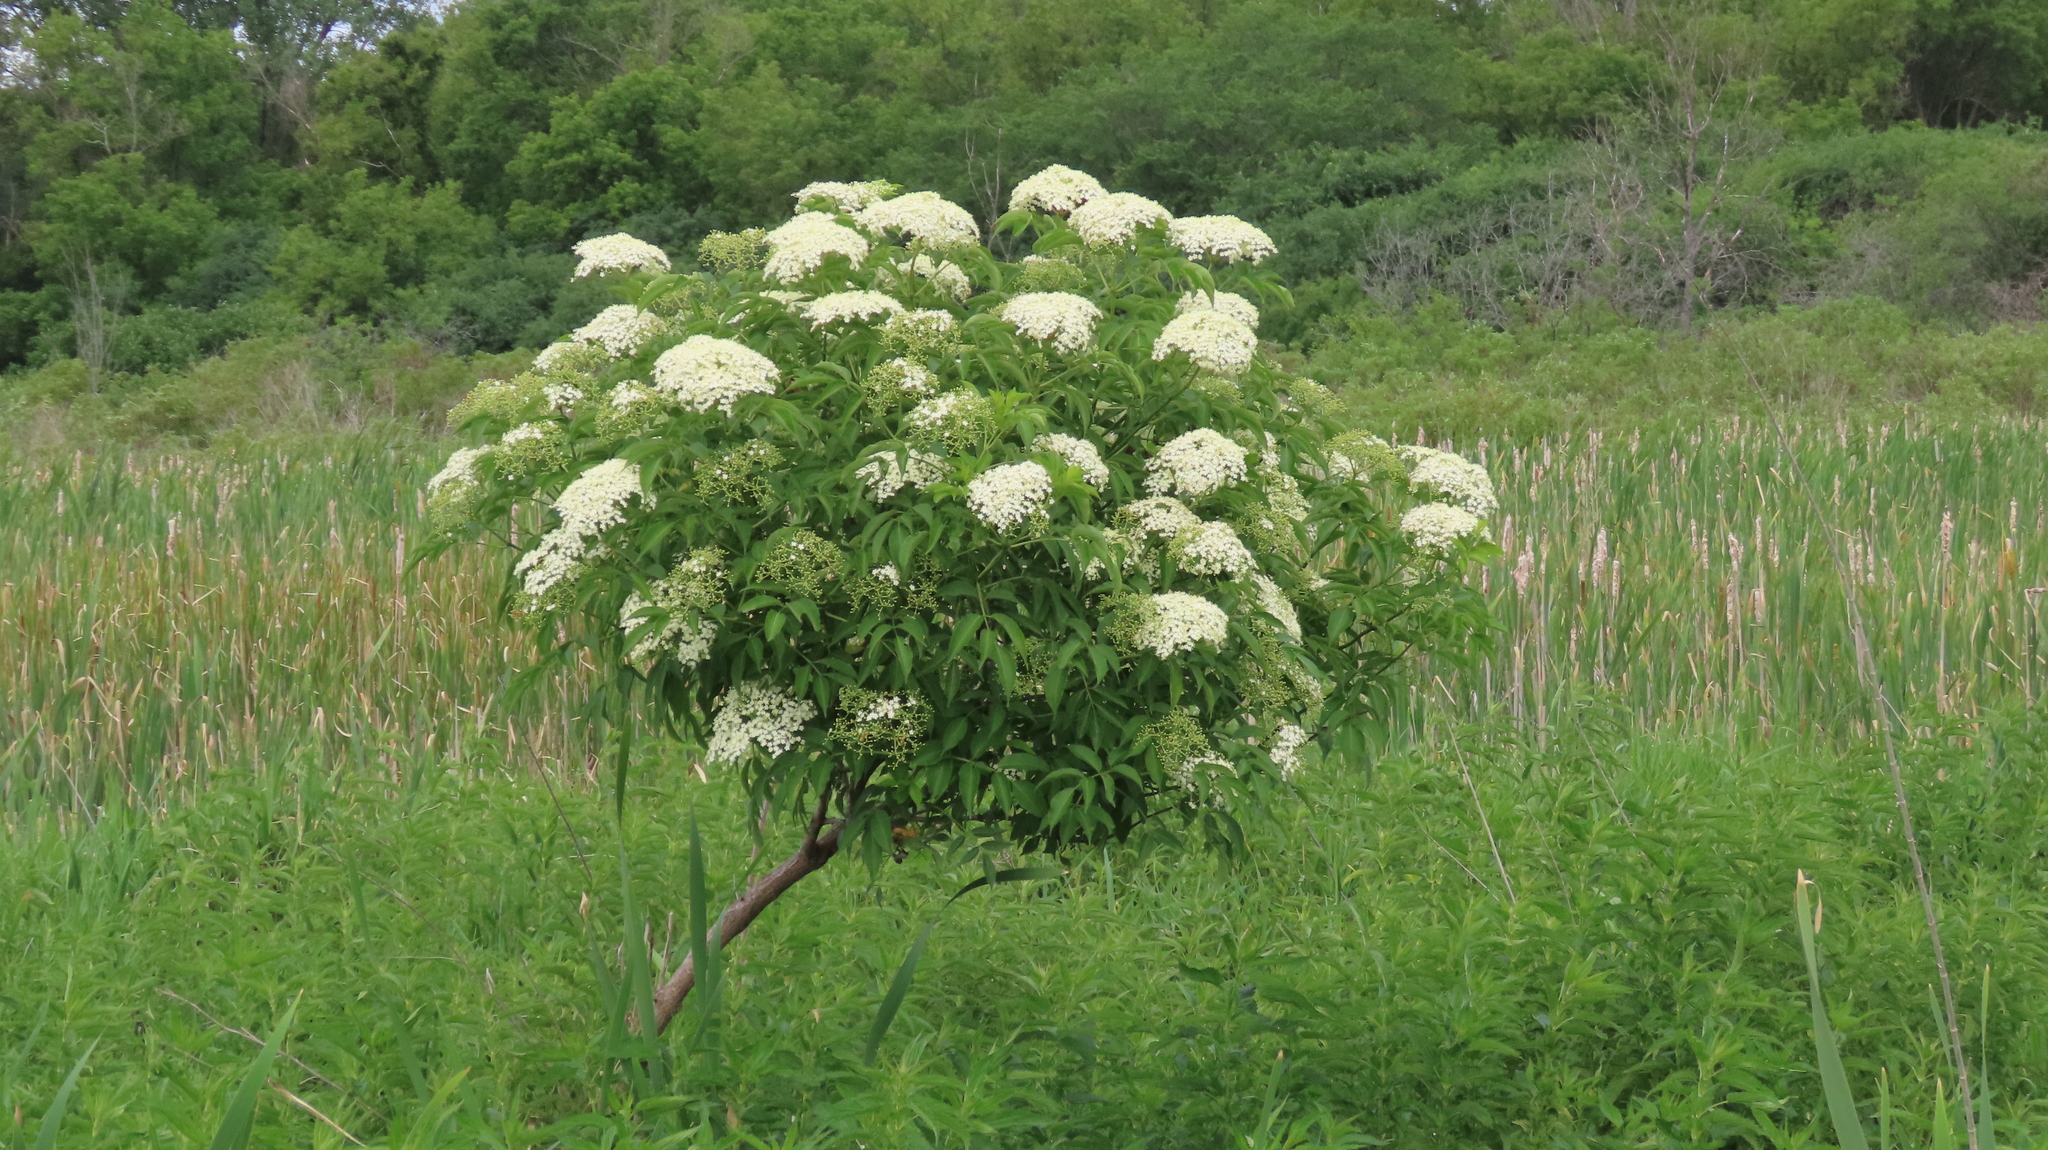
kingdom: Plantae
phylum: Tracheophyta
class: Magnoliopsida
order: Dipsacales
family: Viburnaceae
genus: Sambucus
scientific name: Sambucus canadensis
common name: American elder
